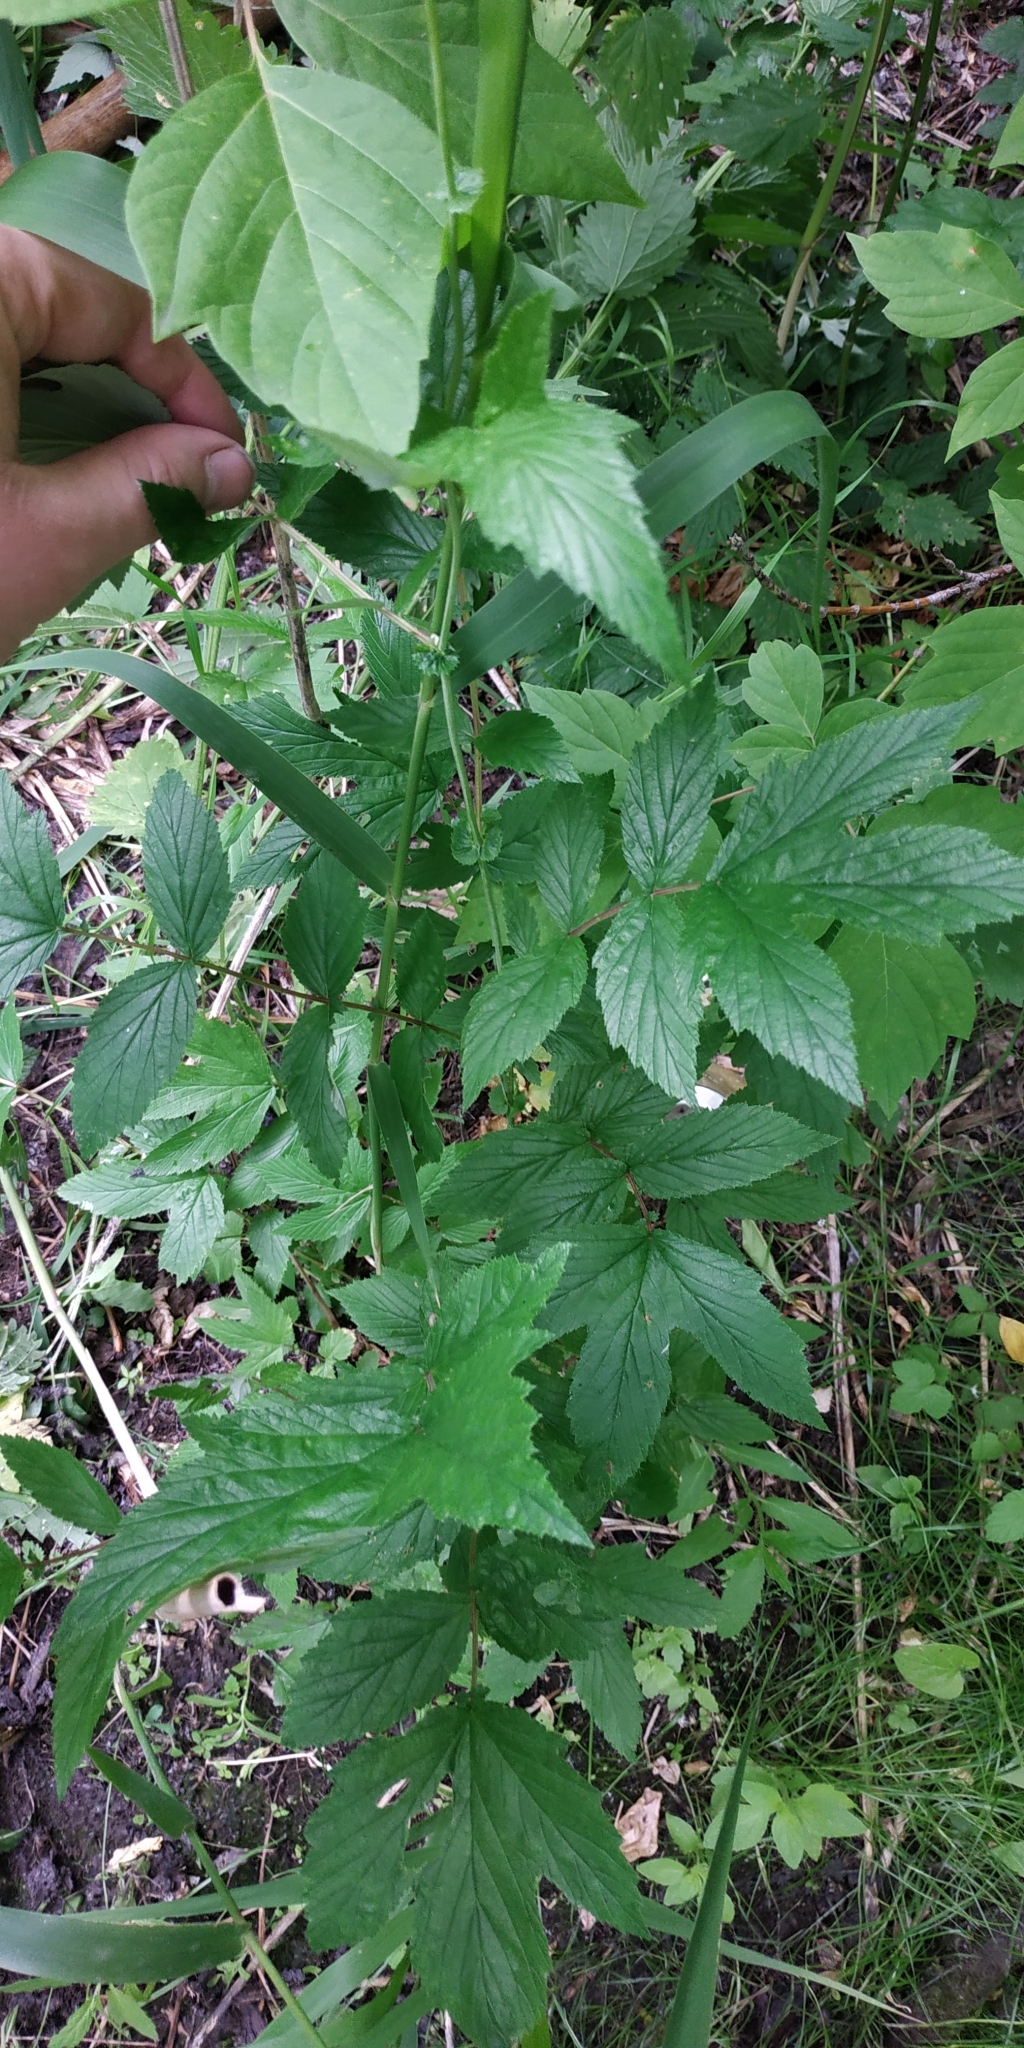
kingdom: Plantae
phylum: Tracheophyta
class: Magnoliopsida
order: Rosales
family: Rosaceae
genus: Filipendula
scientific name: Filipendula ulmaria
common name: Meadowsweet
